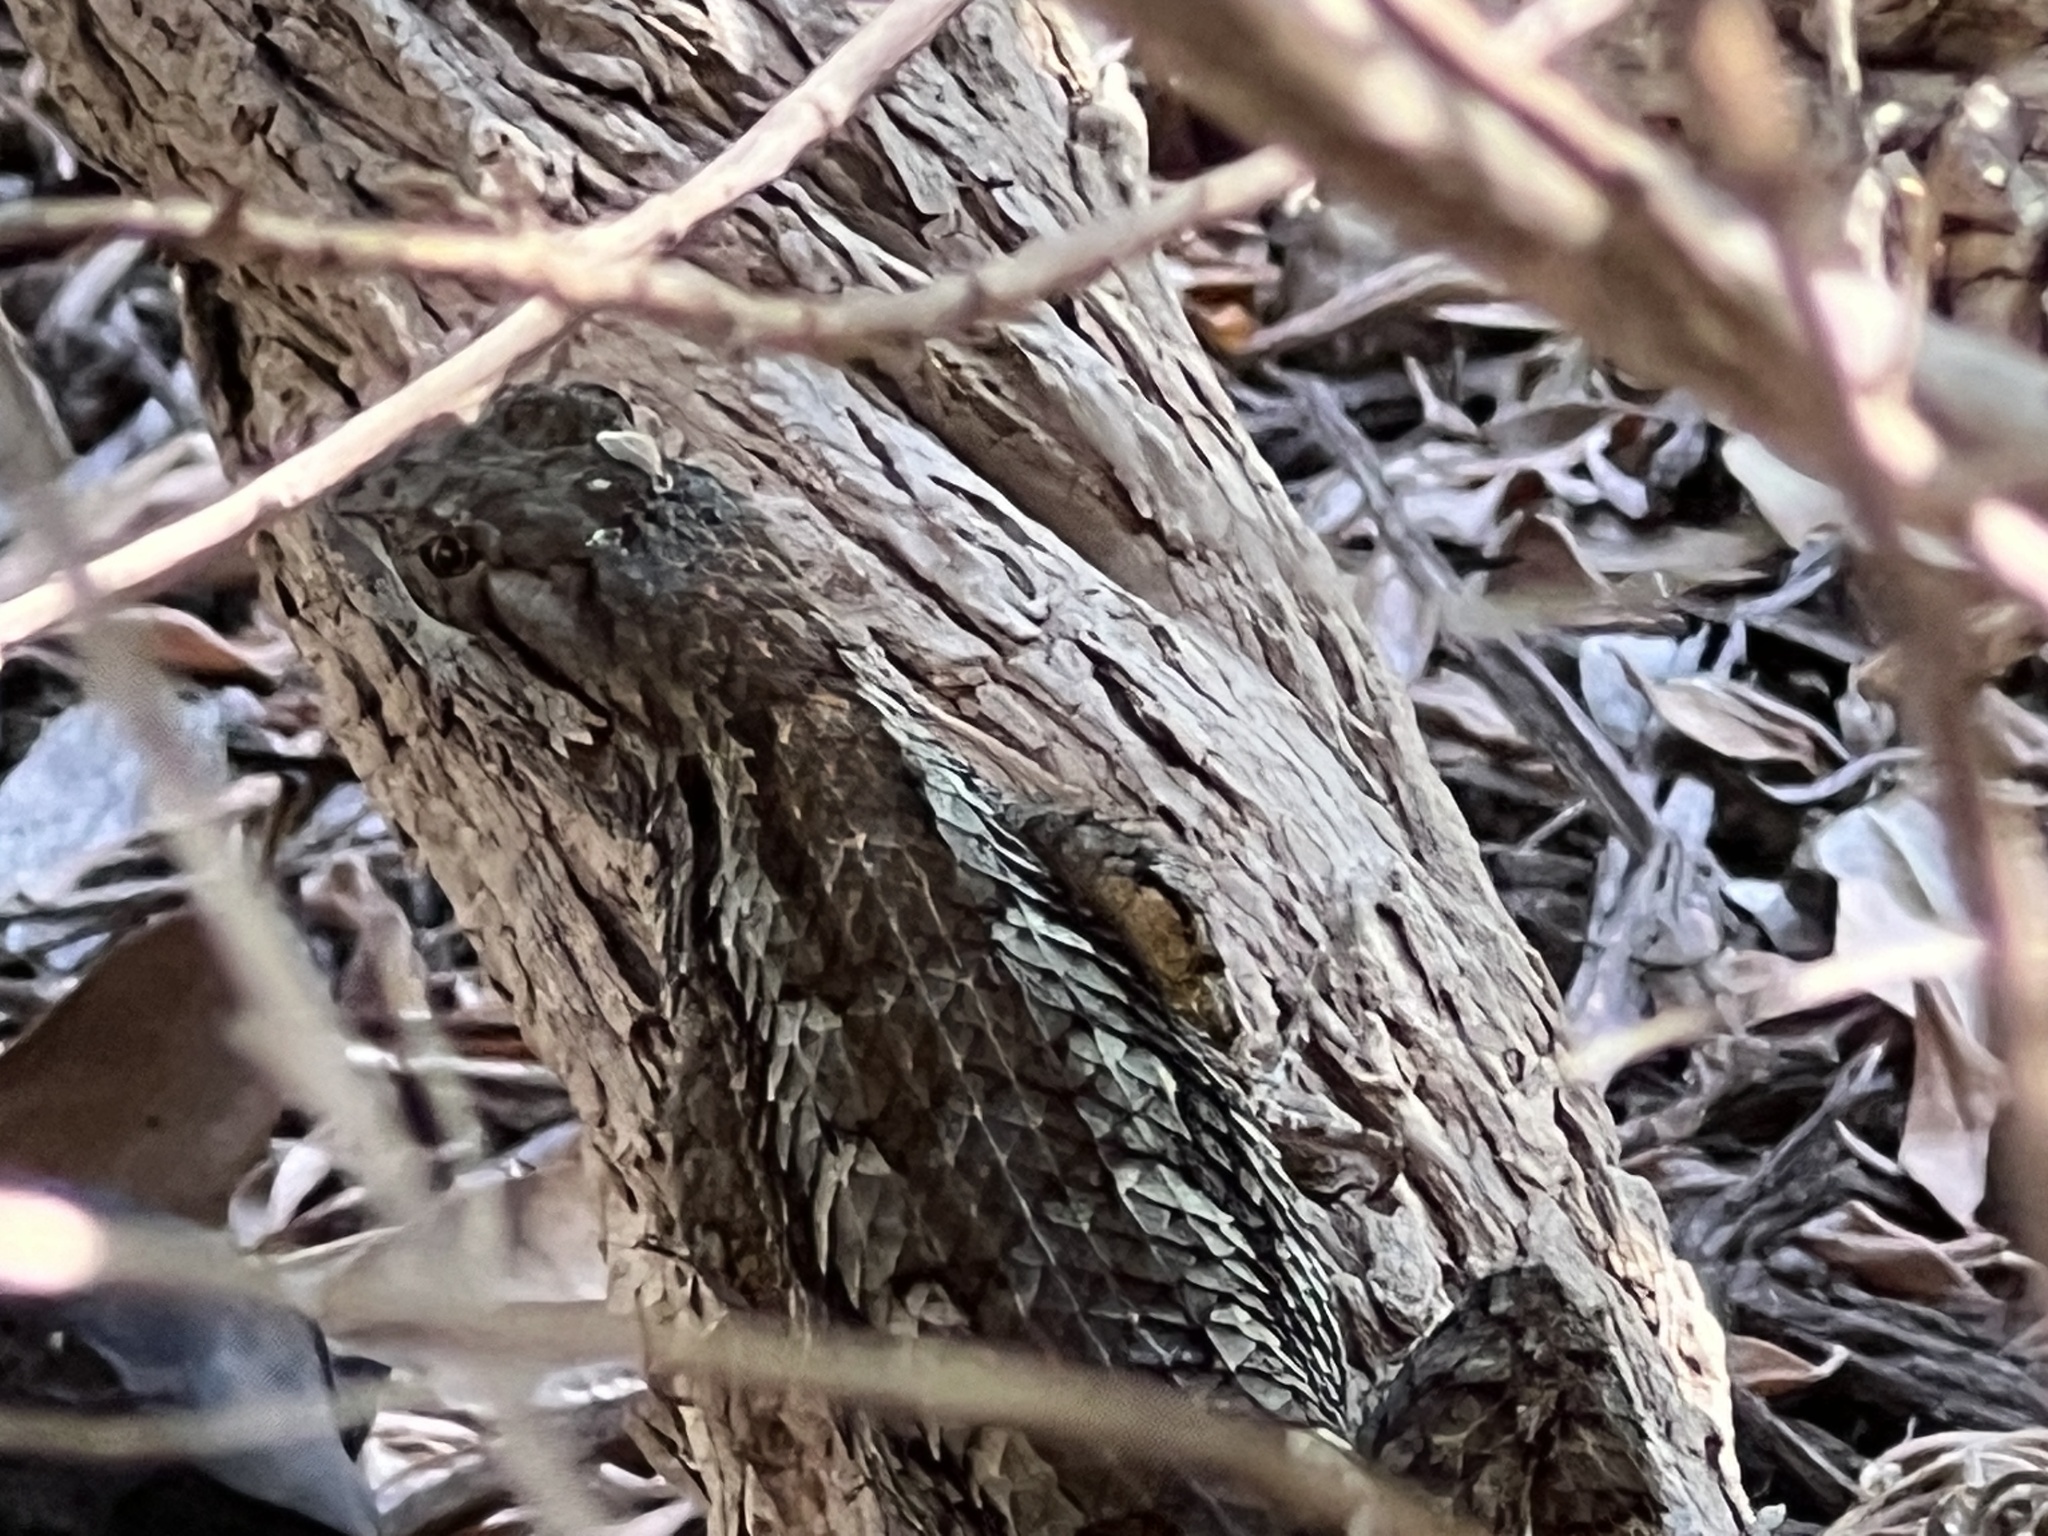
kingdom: Animalia
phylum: Chordata
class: Squamata
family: Phrynosomatidae
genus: Sceloporus
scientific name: Sceloporus olivaceus
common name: Texas spiny lizard
